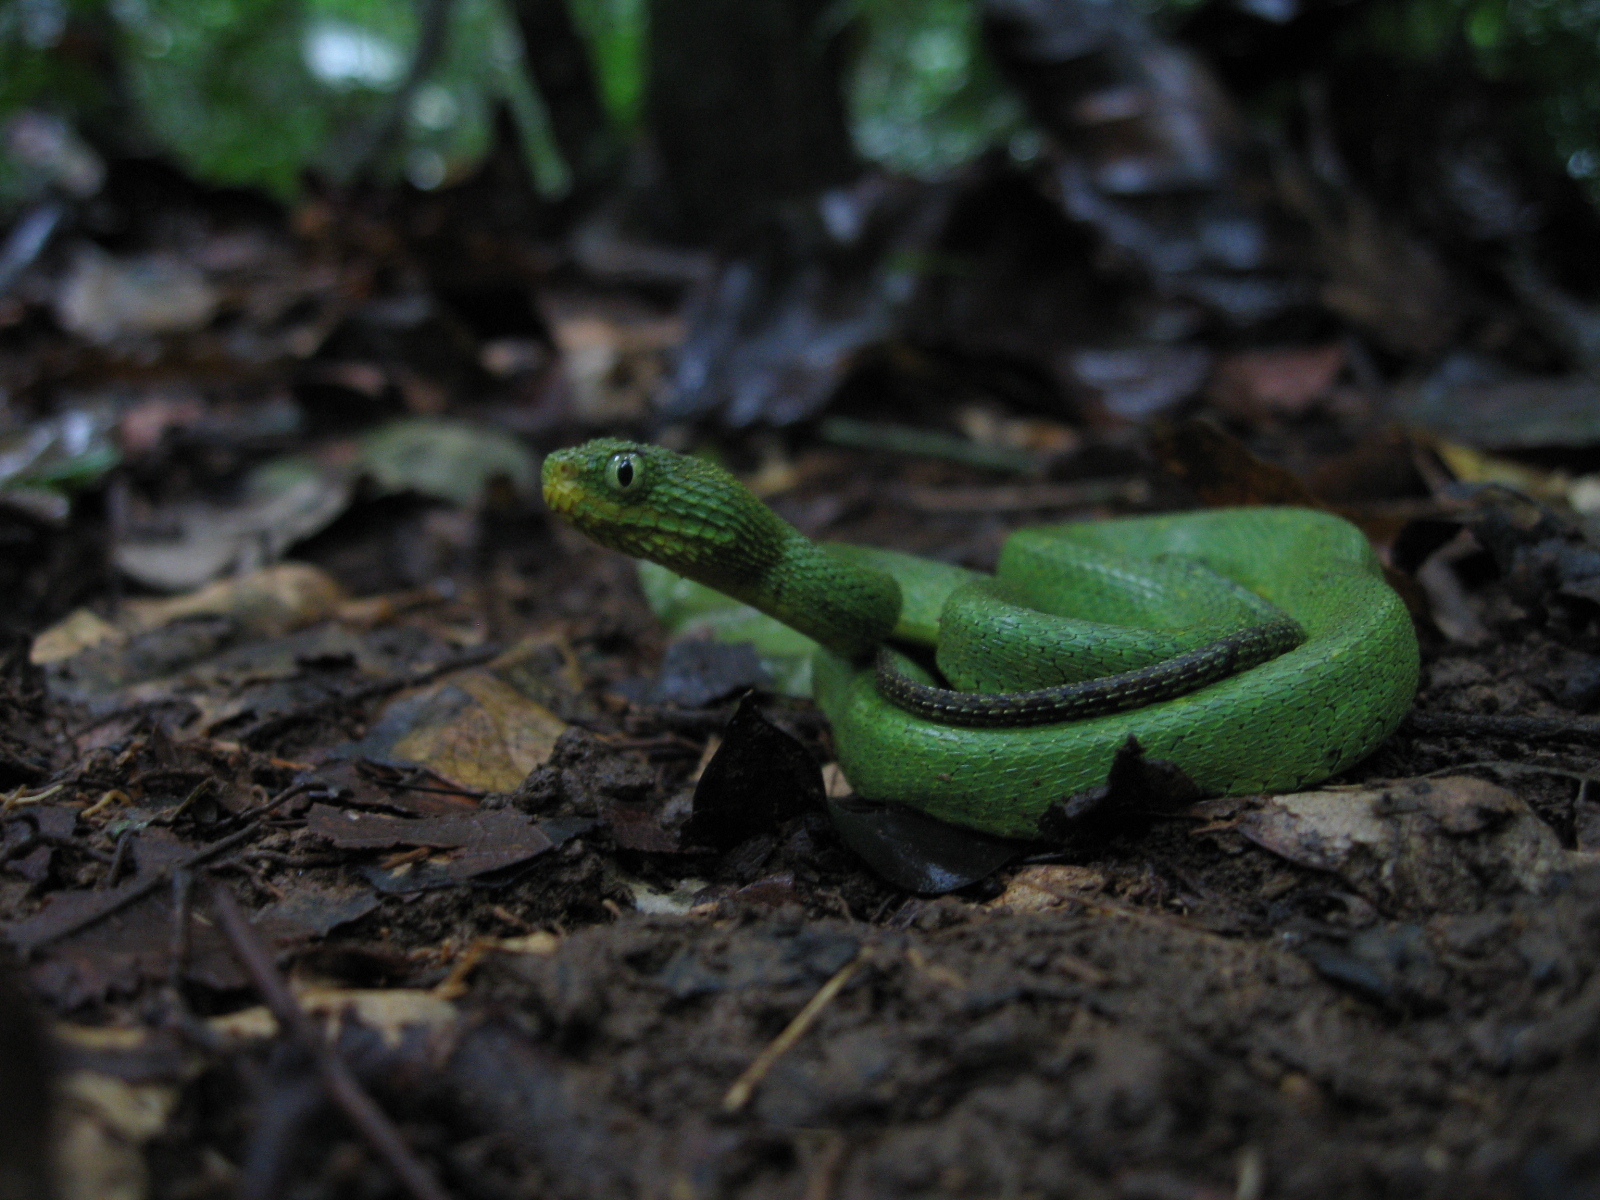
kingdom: Animalia
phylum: Chordata
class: Squamata
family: Viperidae
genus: Atheris
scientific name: Atheris chlorechis
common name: Green bush viper
